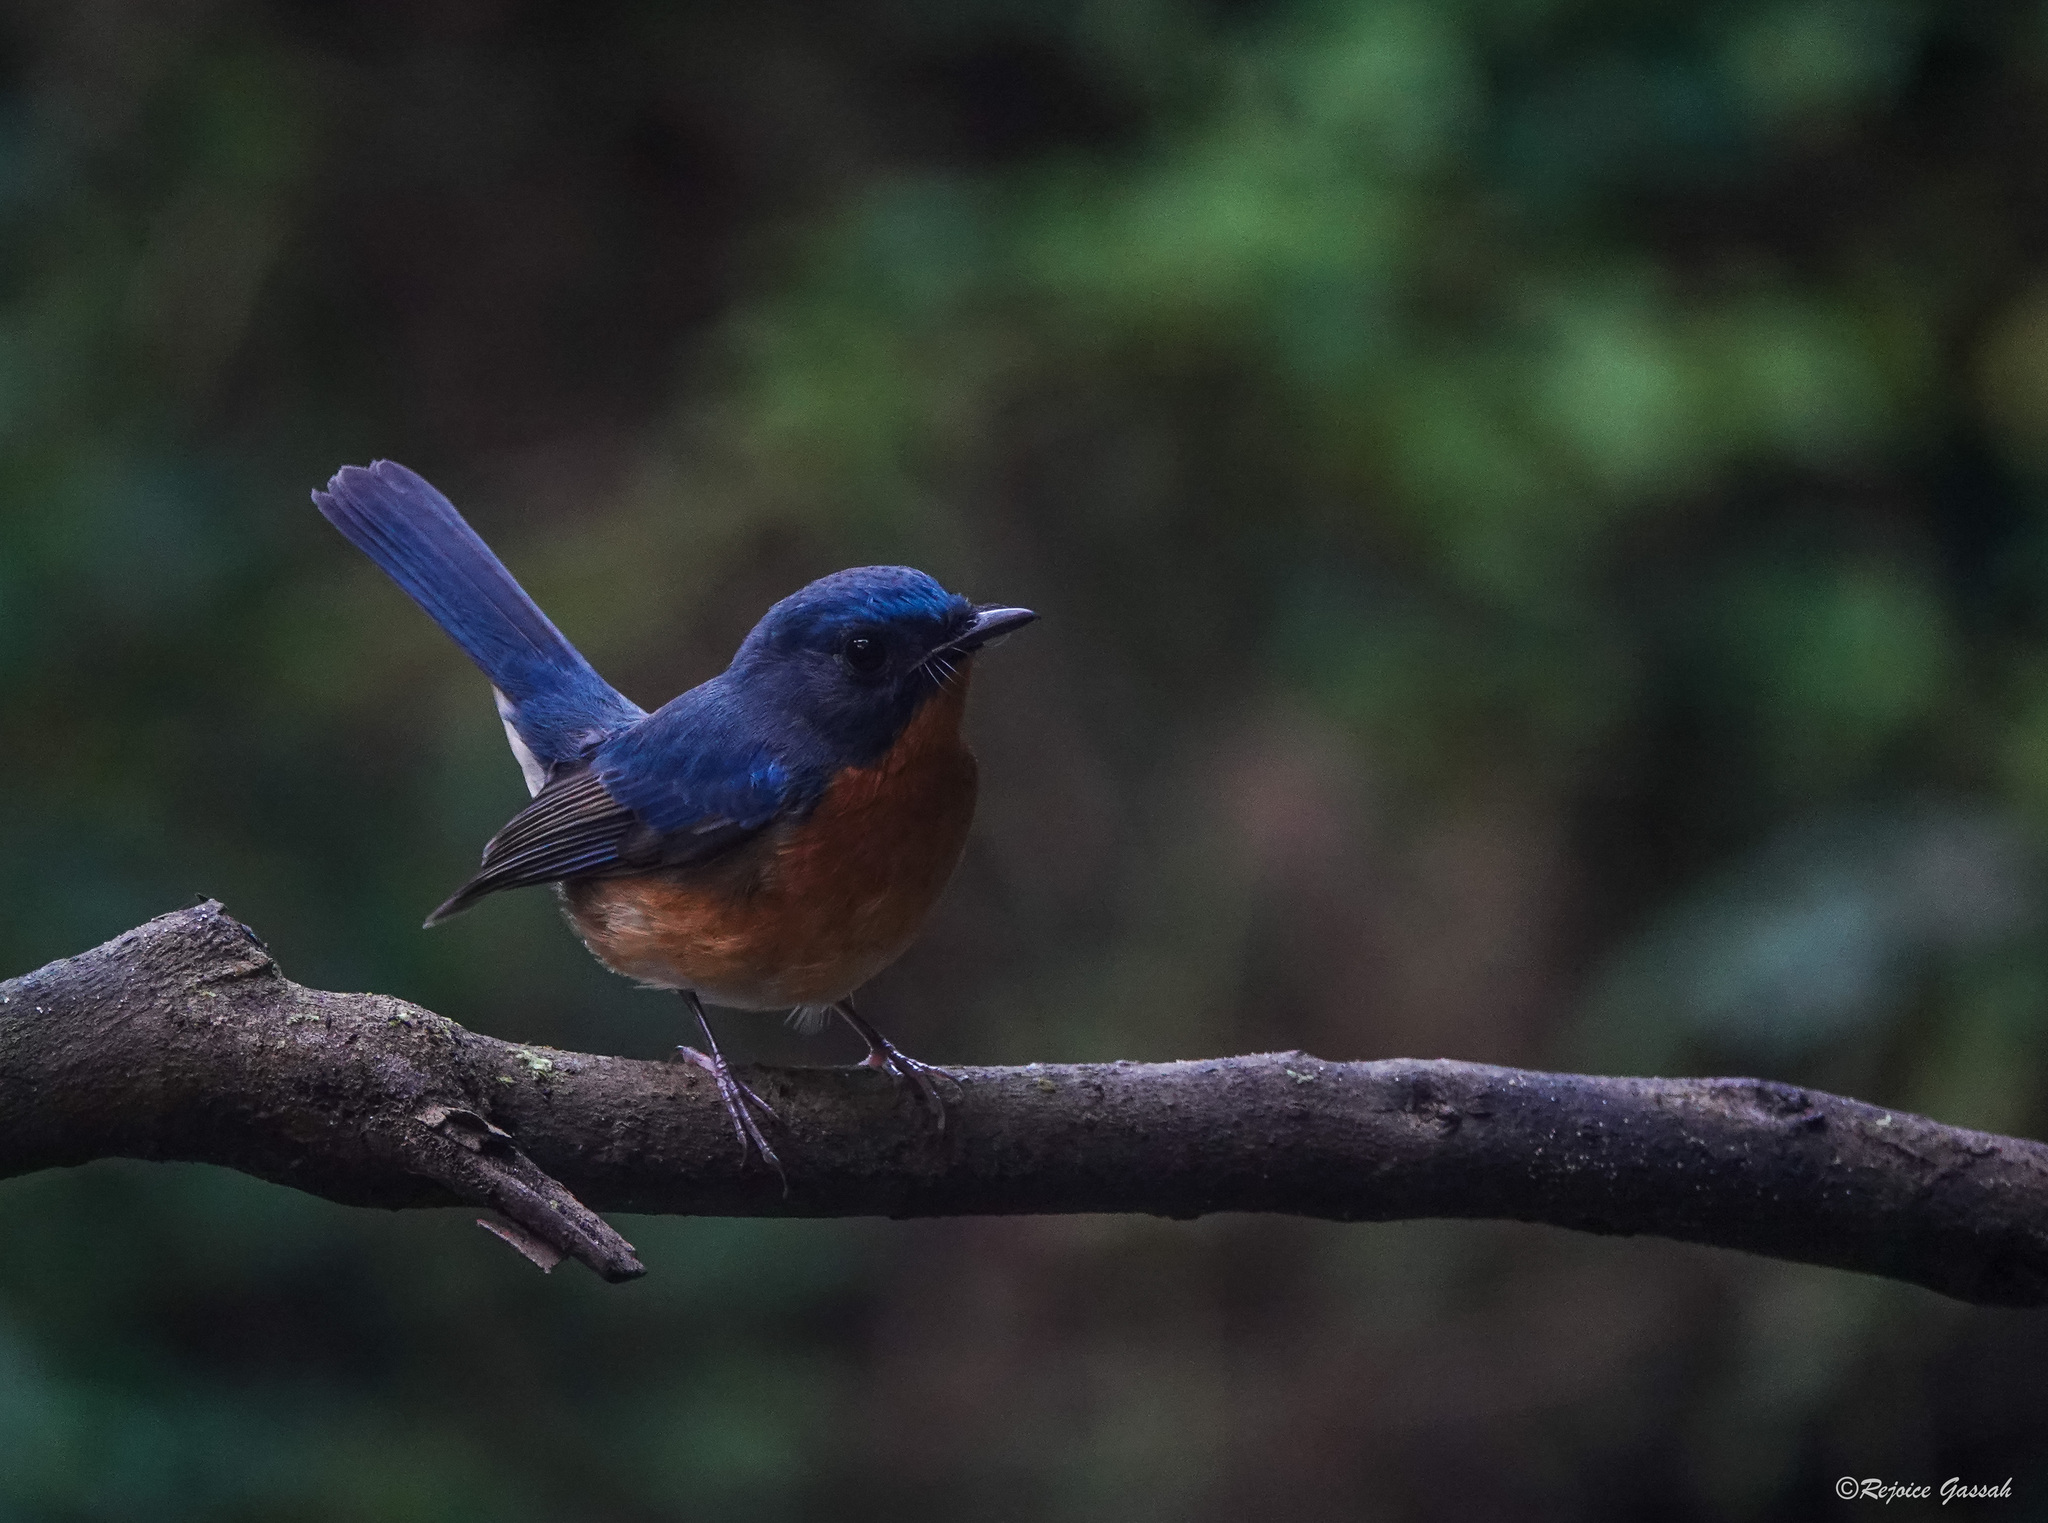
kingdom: Animalia
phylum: Chordata
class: Aves
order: Passeriformes
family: Muscicapidae
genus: Cyornis
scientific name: Cyornis whitei
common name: Hill blue flycatcher
